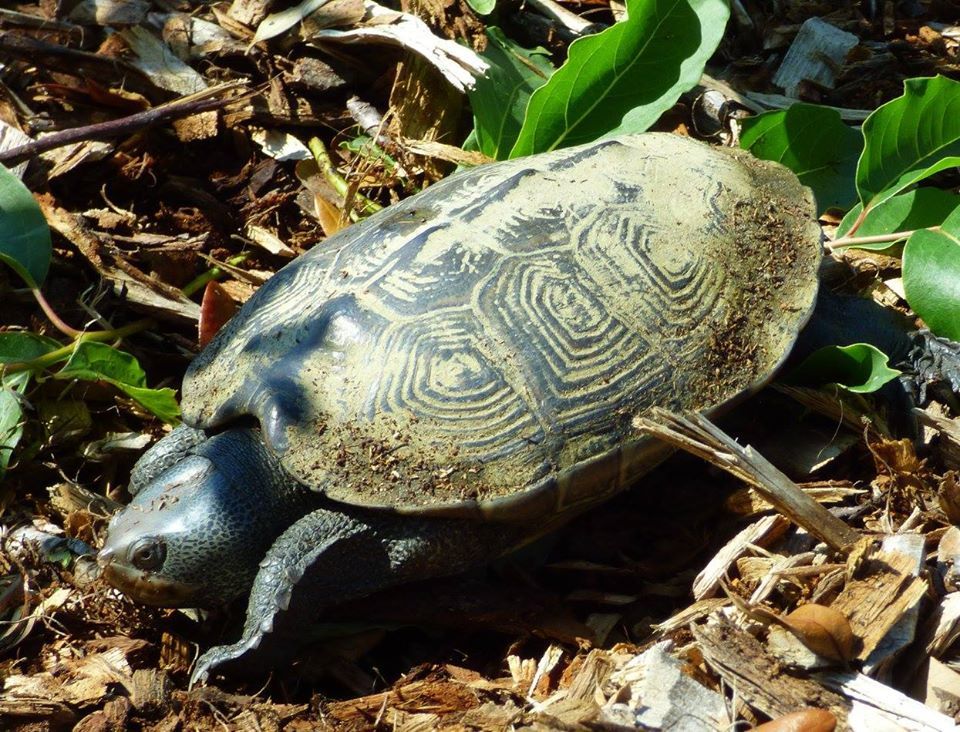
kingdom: Animalia
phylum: Chordata
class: Testudines
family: Emydidae
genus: Malaclemys
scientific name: Malaclemys terrapin
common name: Diamondback terrapin
